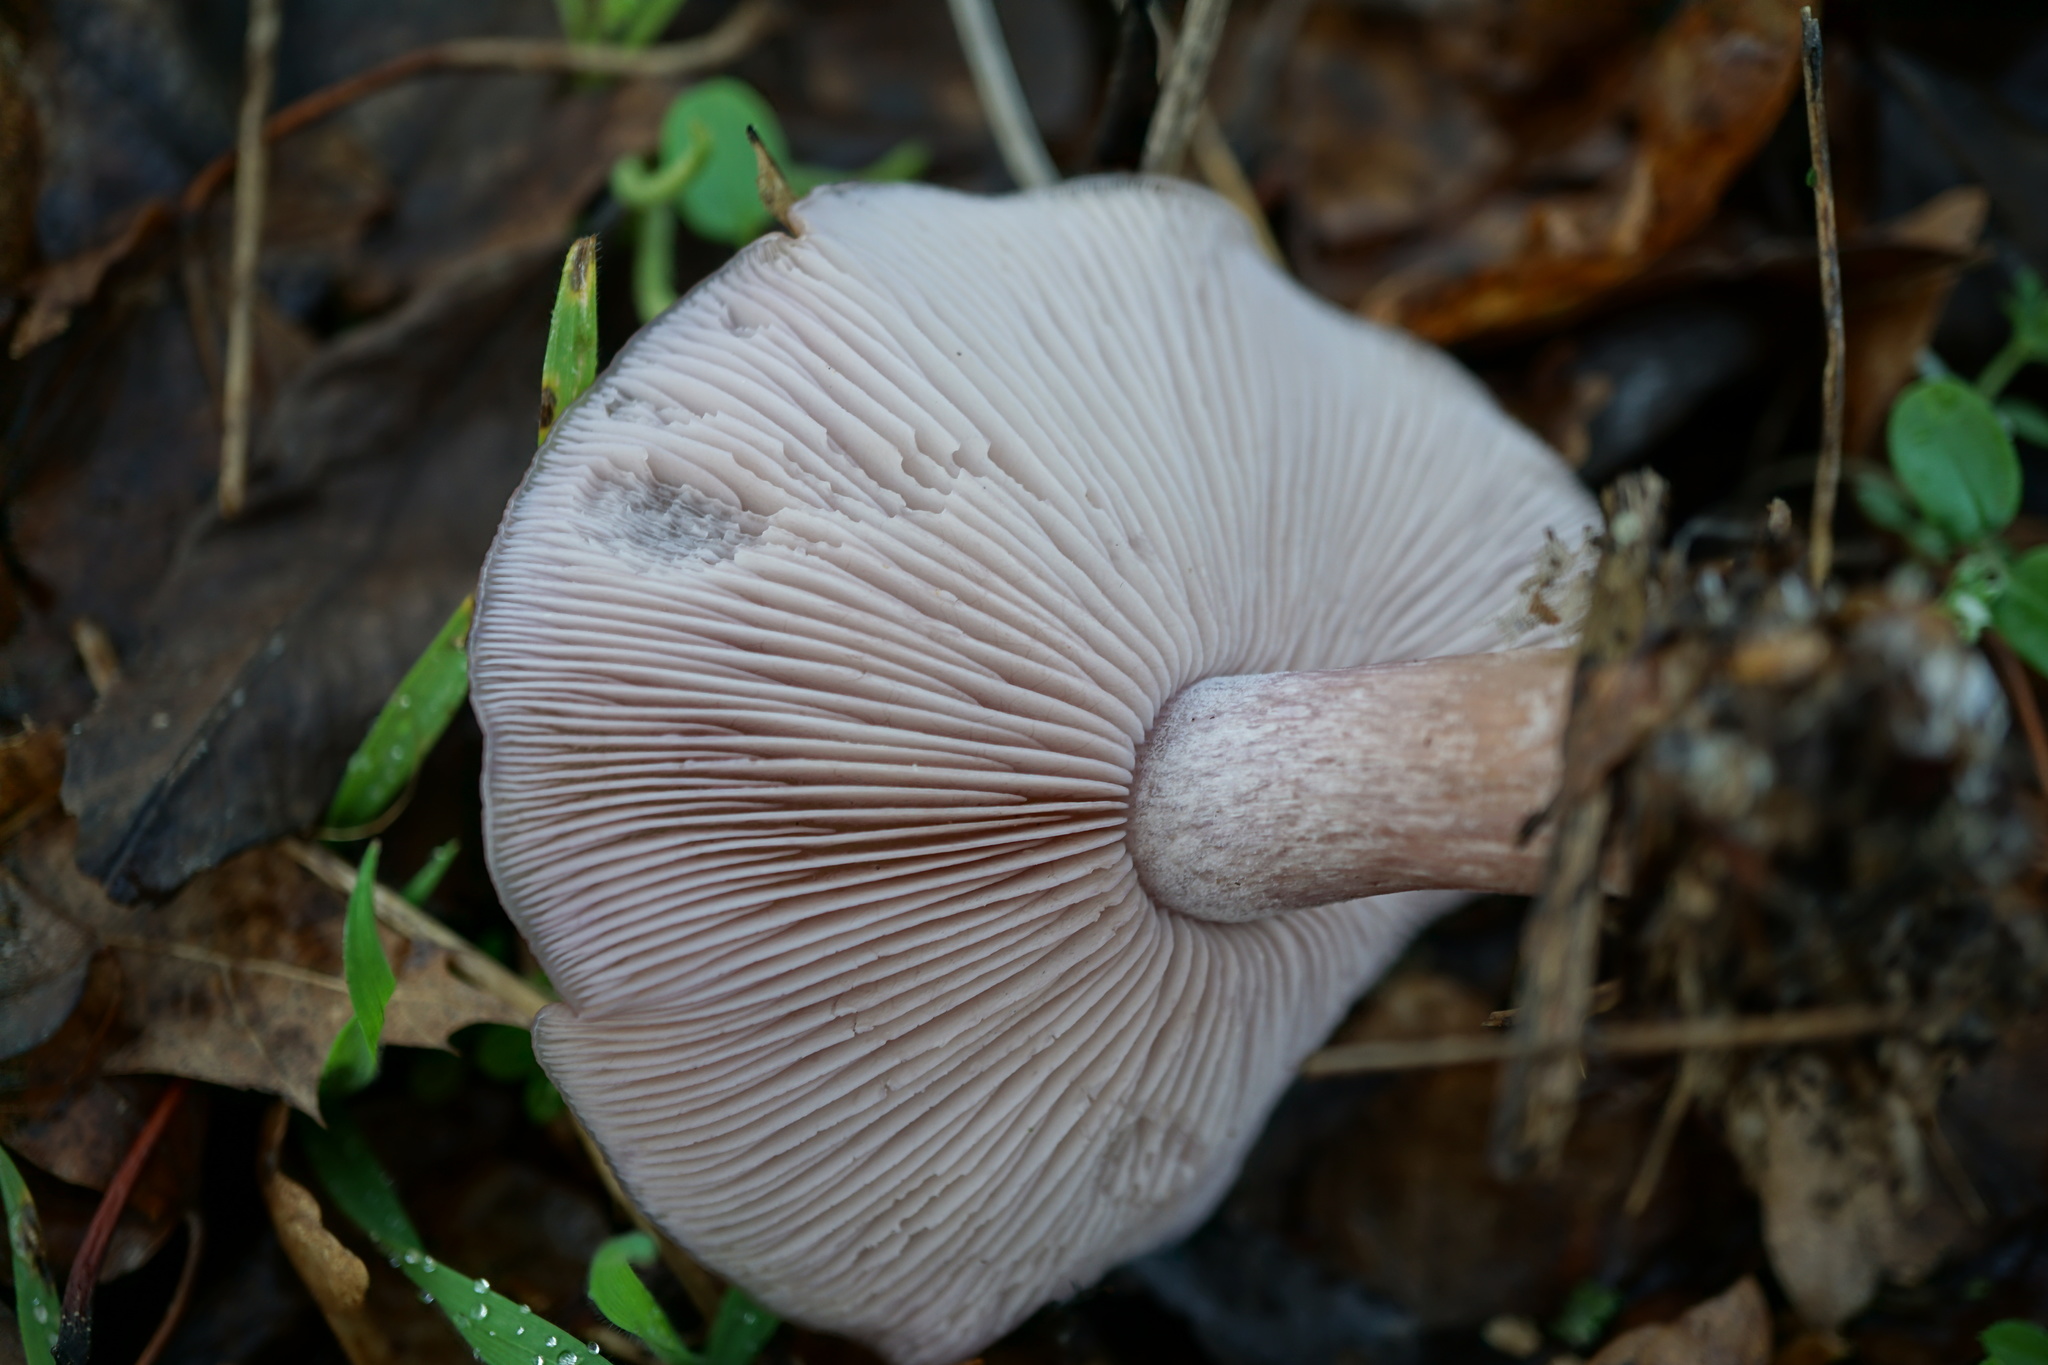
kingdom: Fungi
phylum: Basidiomycota
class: Agaricomycetes
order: Agaricales
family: Tricholomataceae
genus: Collybia
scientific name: Collybia
